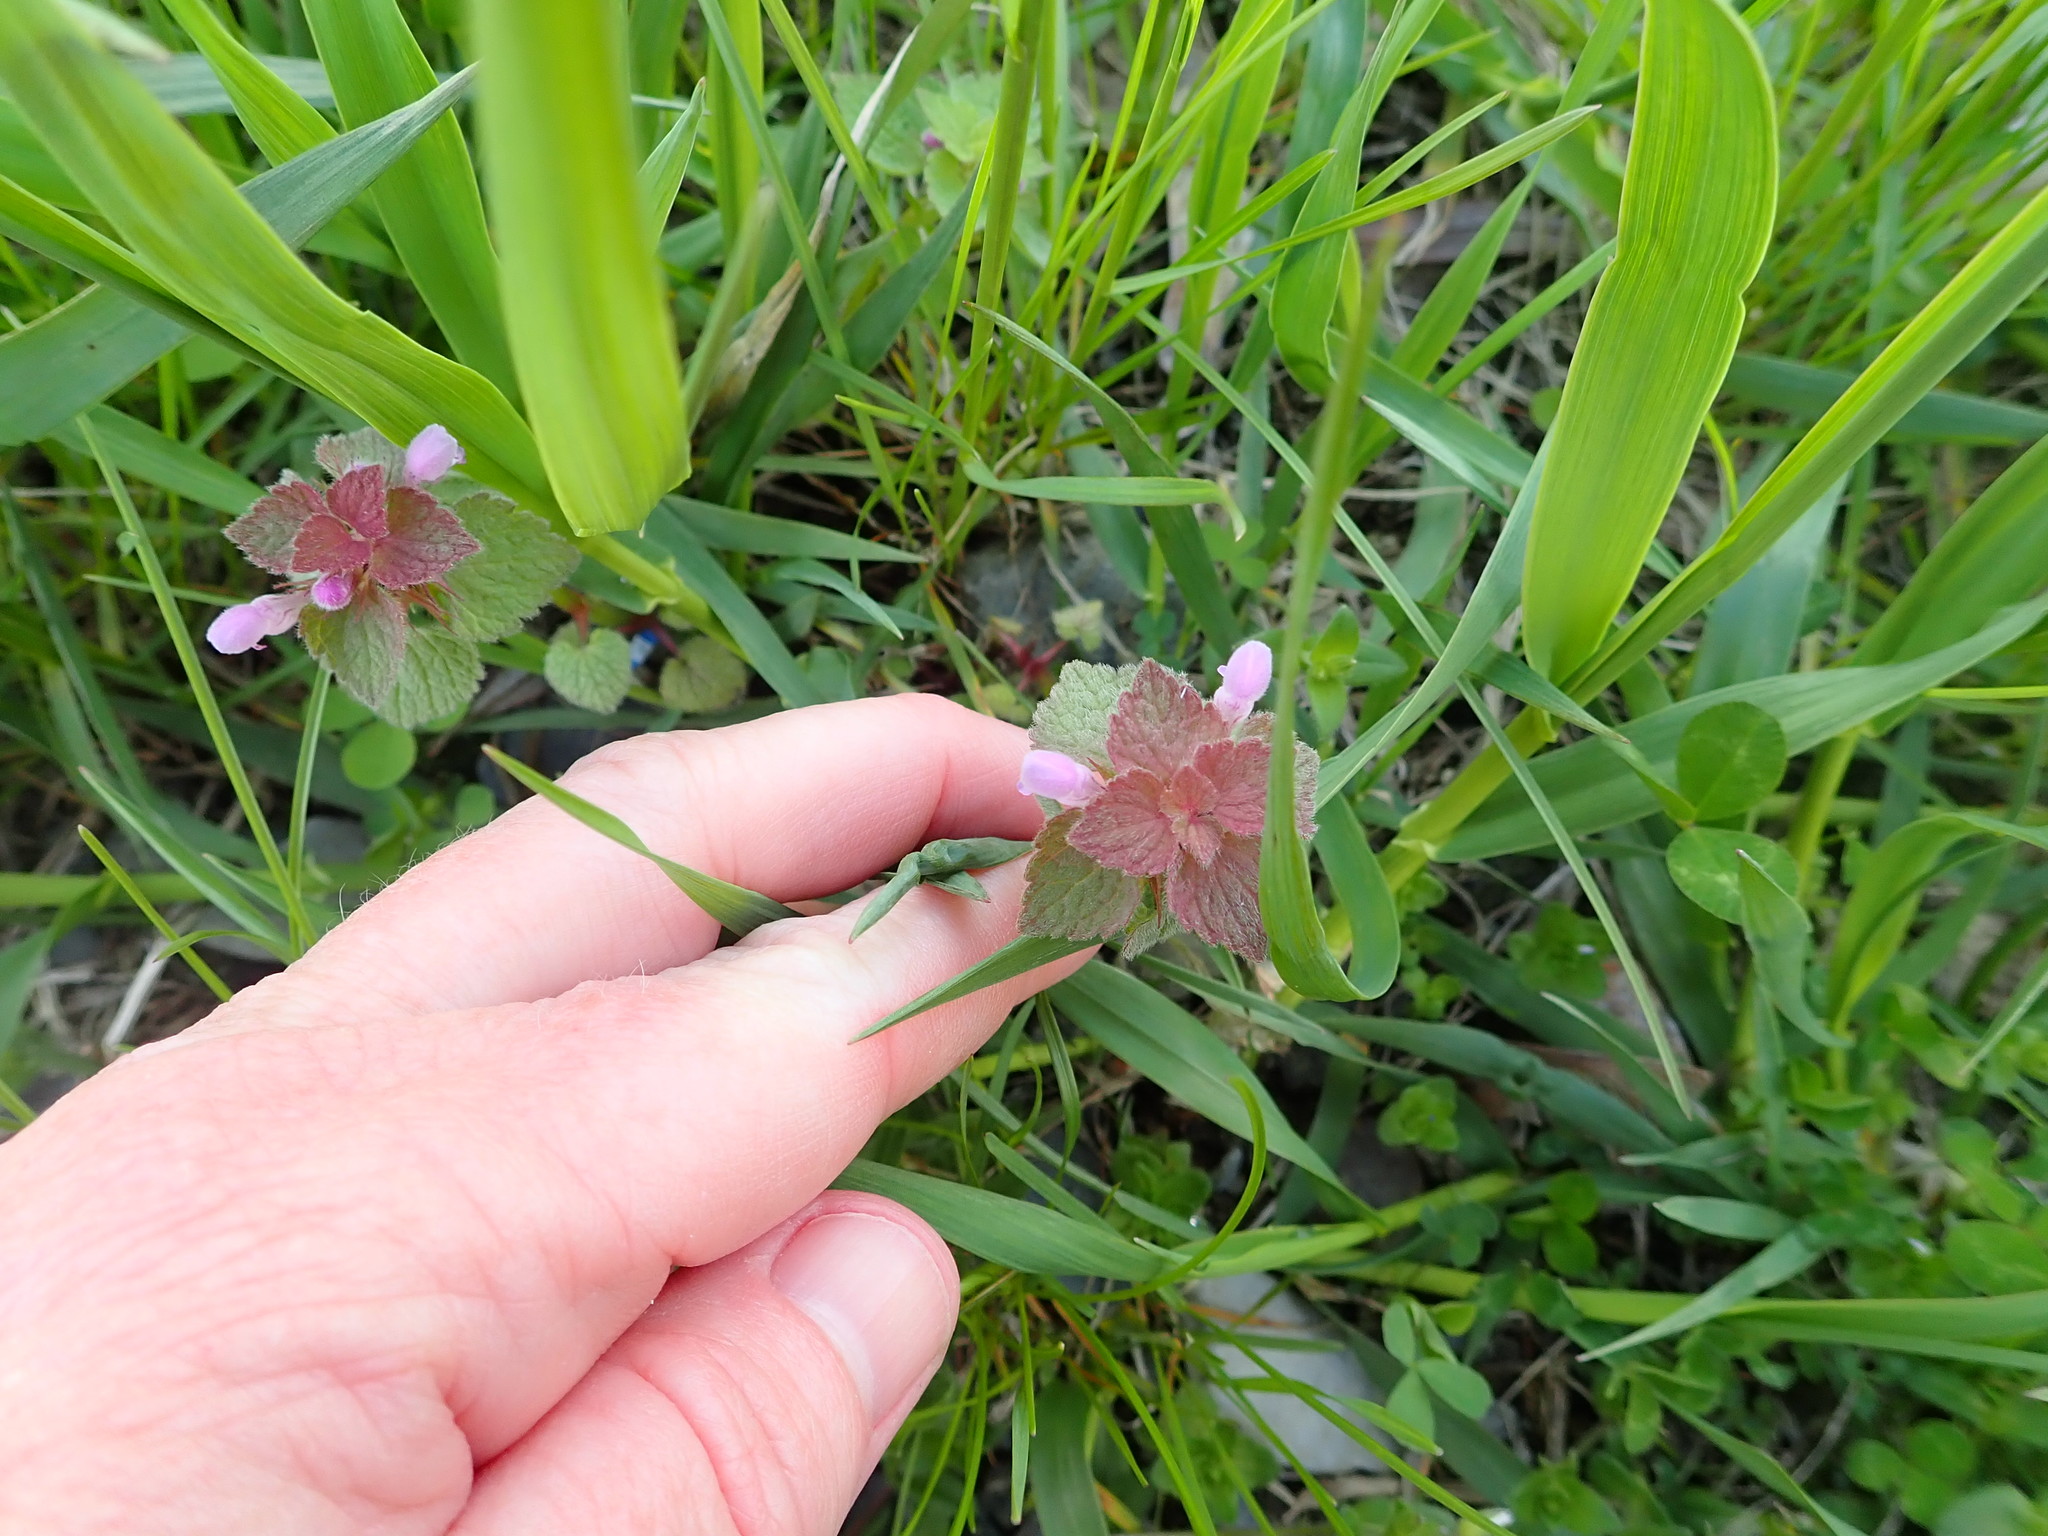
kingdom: Plantae
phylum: Tracheophyta
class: Magnoliopsida
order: Lamiales
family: Lamiaceae
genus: Lamium
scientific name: Lamium purpureum
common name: Red dead-nettle
